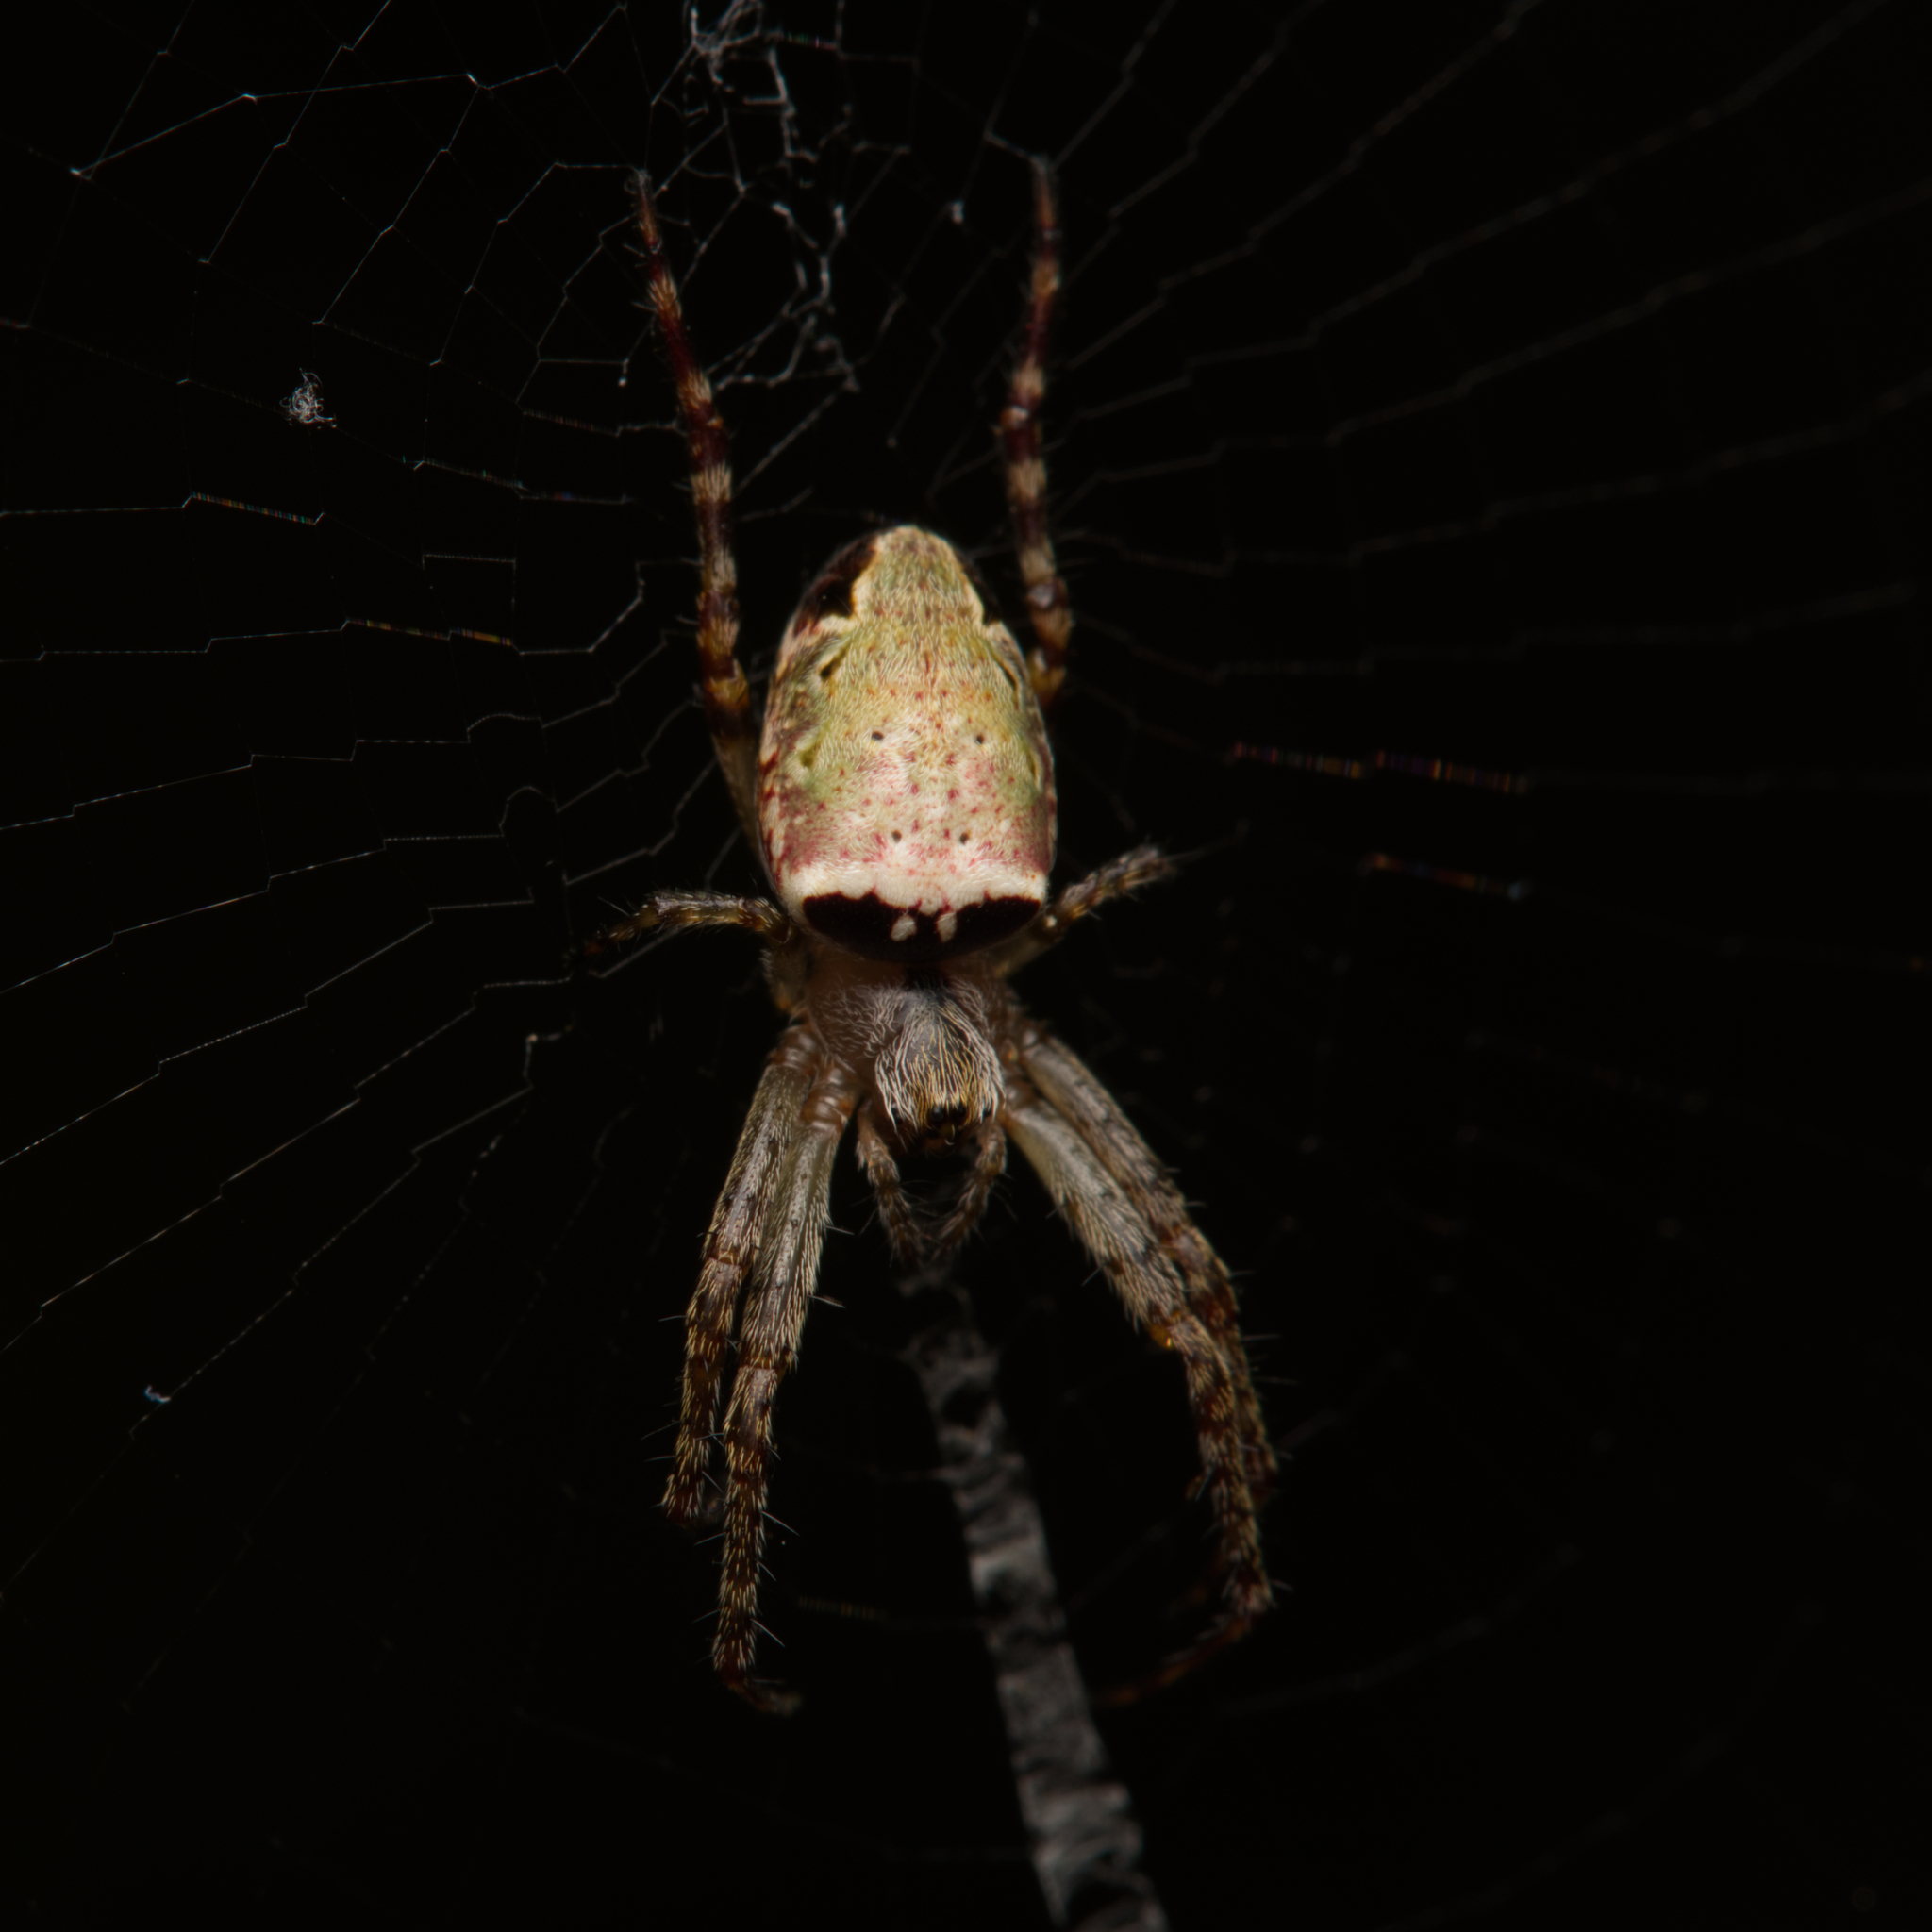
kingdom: Animalia
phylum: Arthropoda
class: Arachnida
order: Araneae
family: Araneidae
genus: Plebs
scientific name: Plebs eburnus
